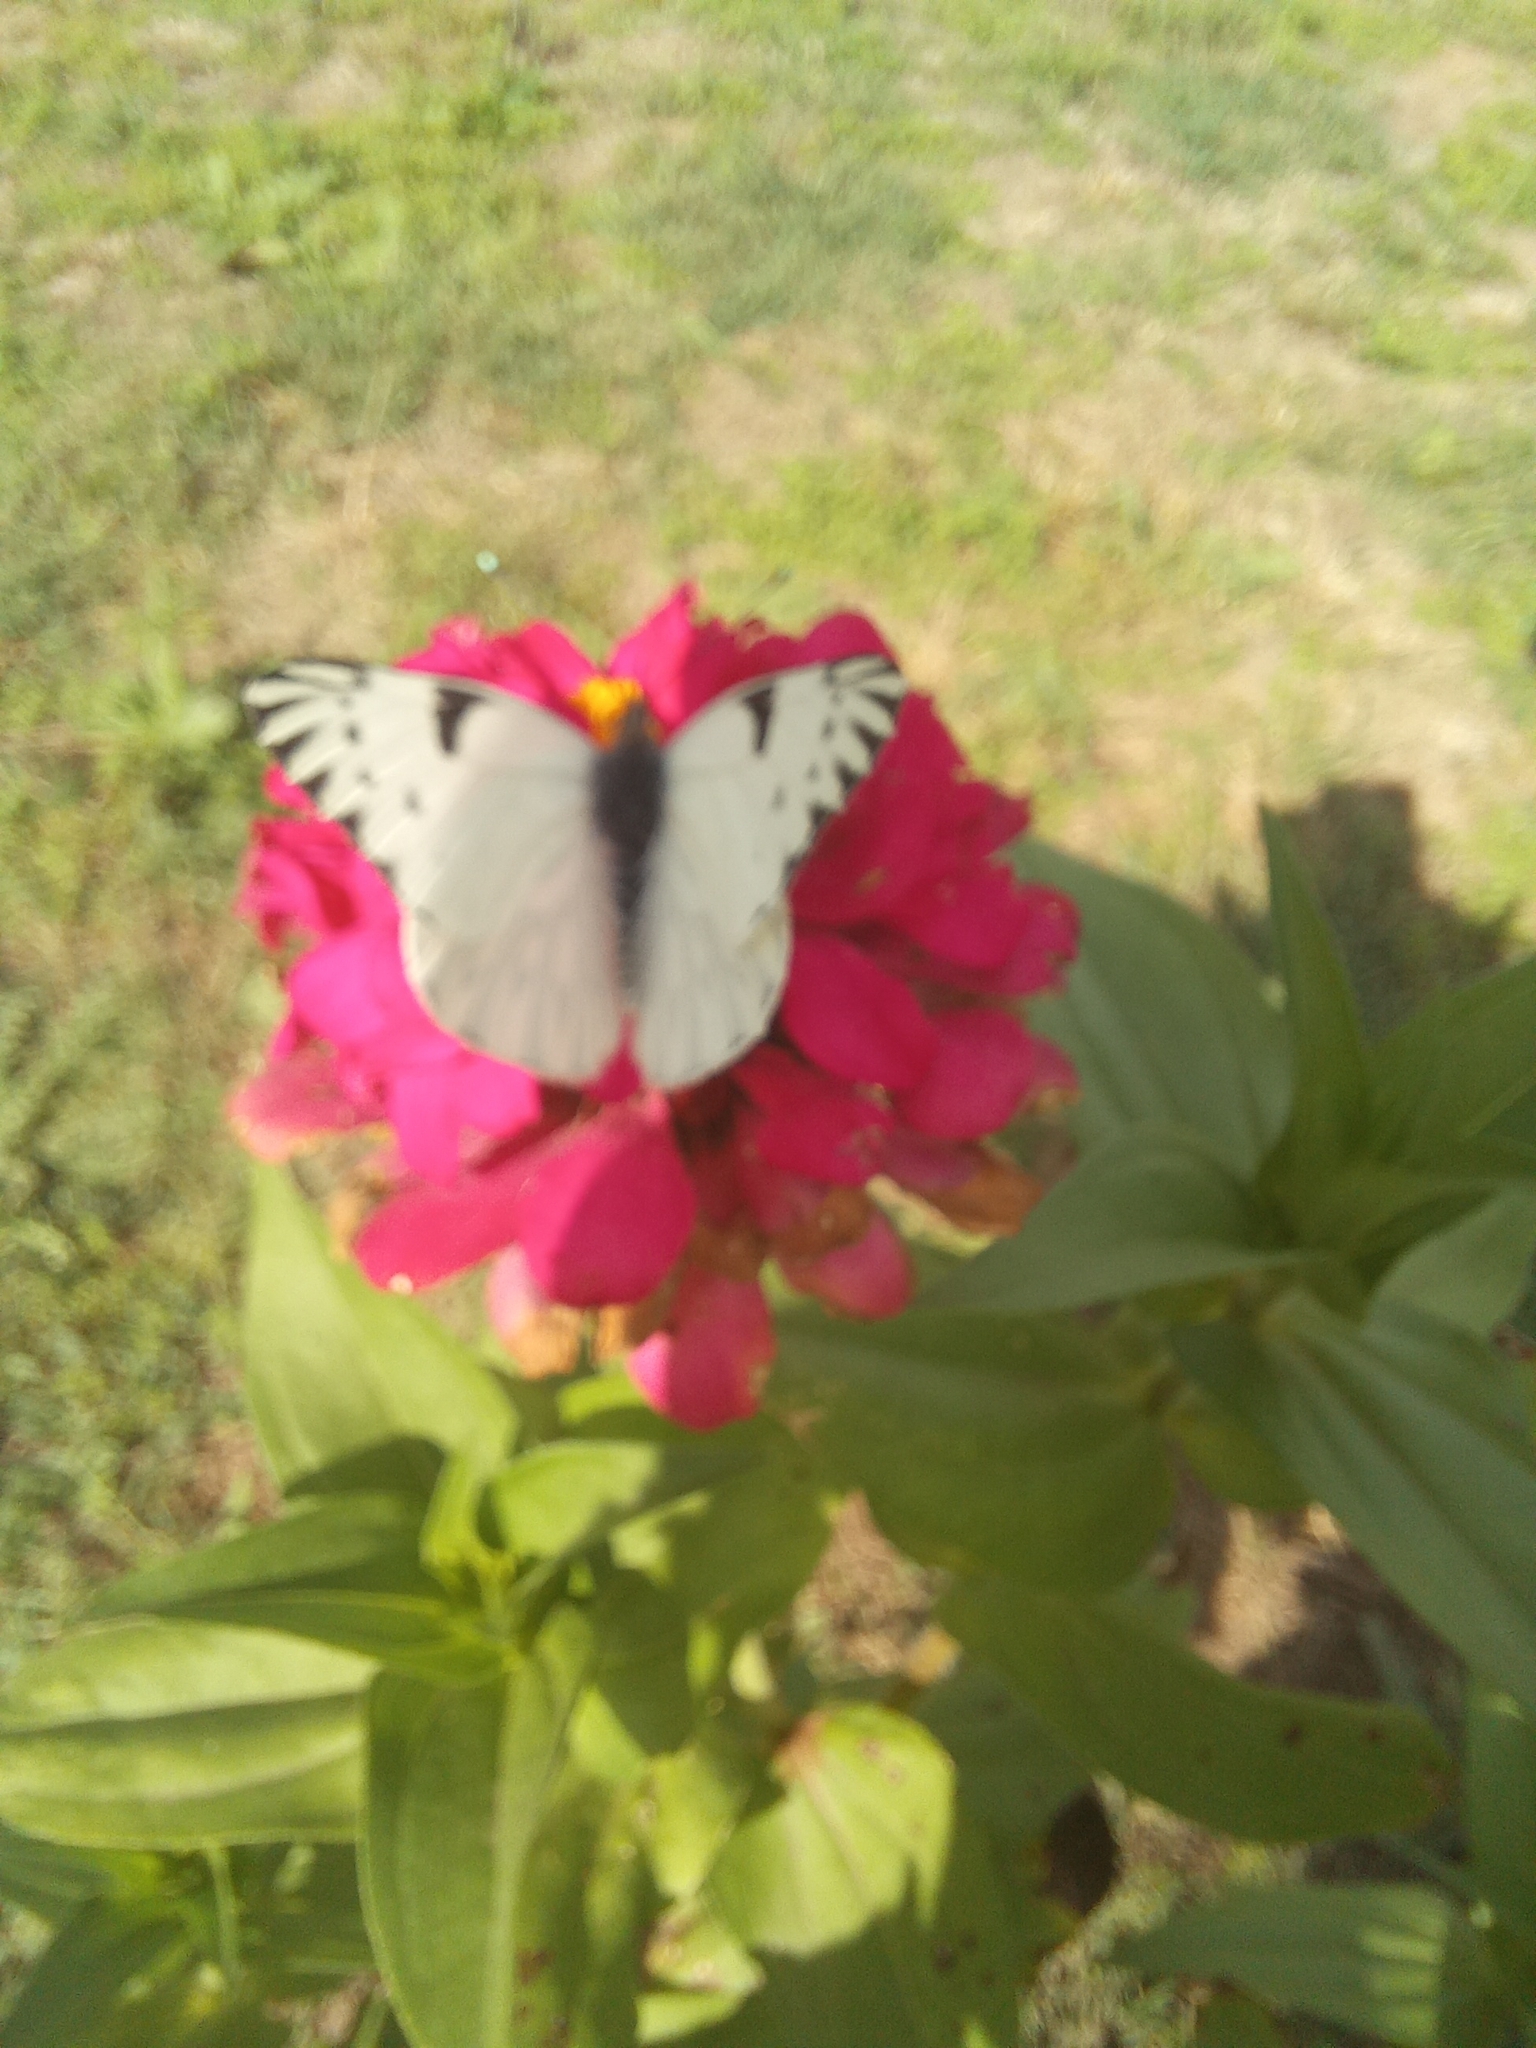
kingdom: Animalia
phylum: Arthropoda
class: Insecta
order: Lepidoptera
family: Pieridae
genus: Tatochila
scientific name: Tatochila autodice
